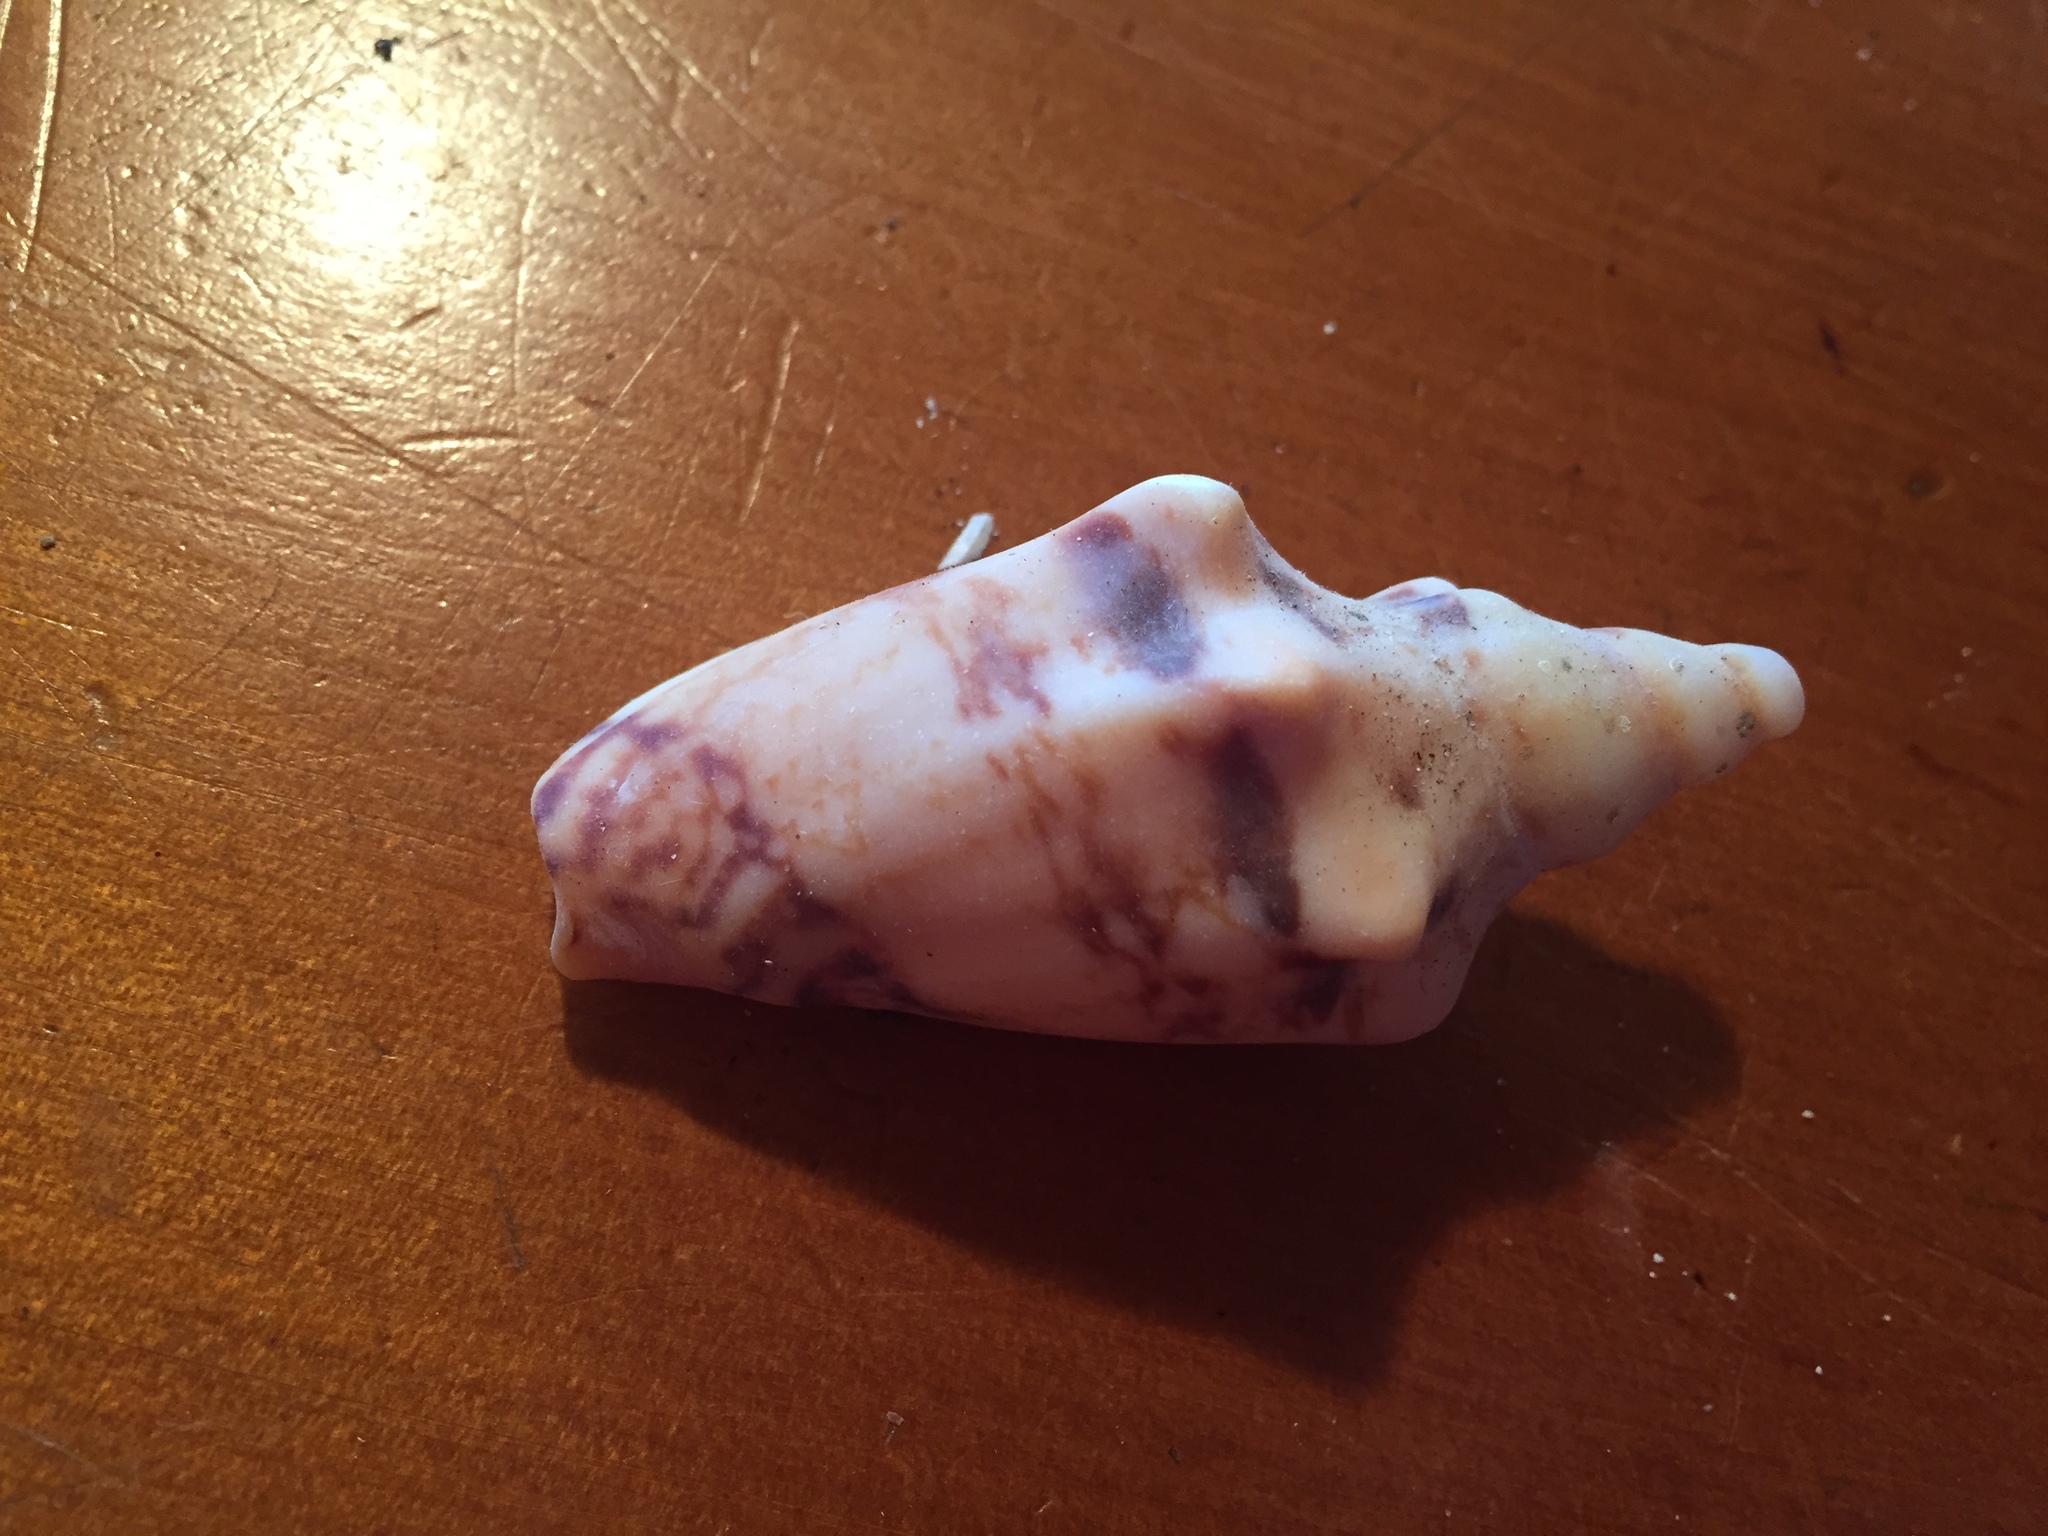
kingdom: Animalia
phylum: Mollusca
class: Gastropoda
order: Neogastropoda
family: Volutidae
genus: Alcithoe
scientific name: Alcithoe arabica
